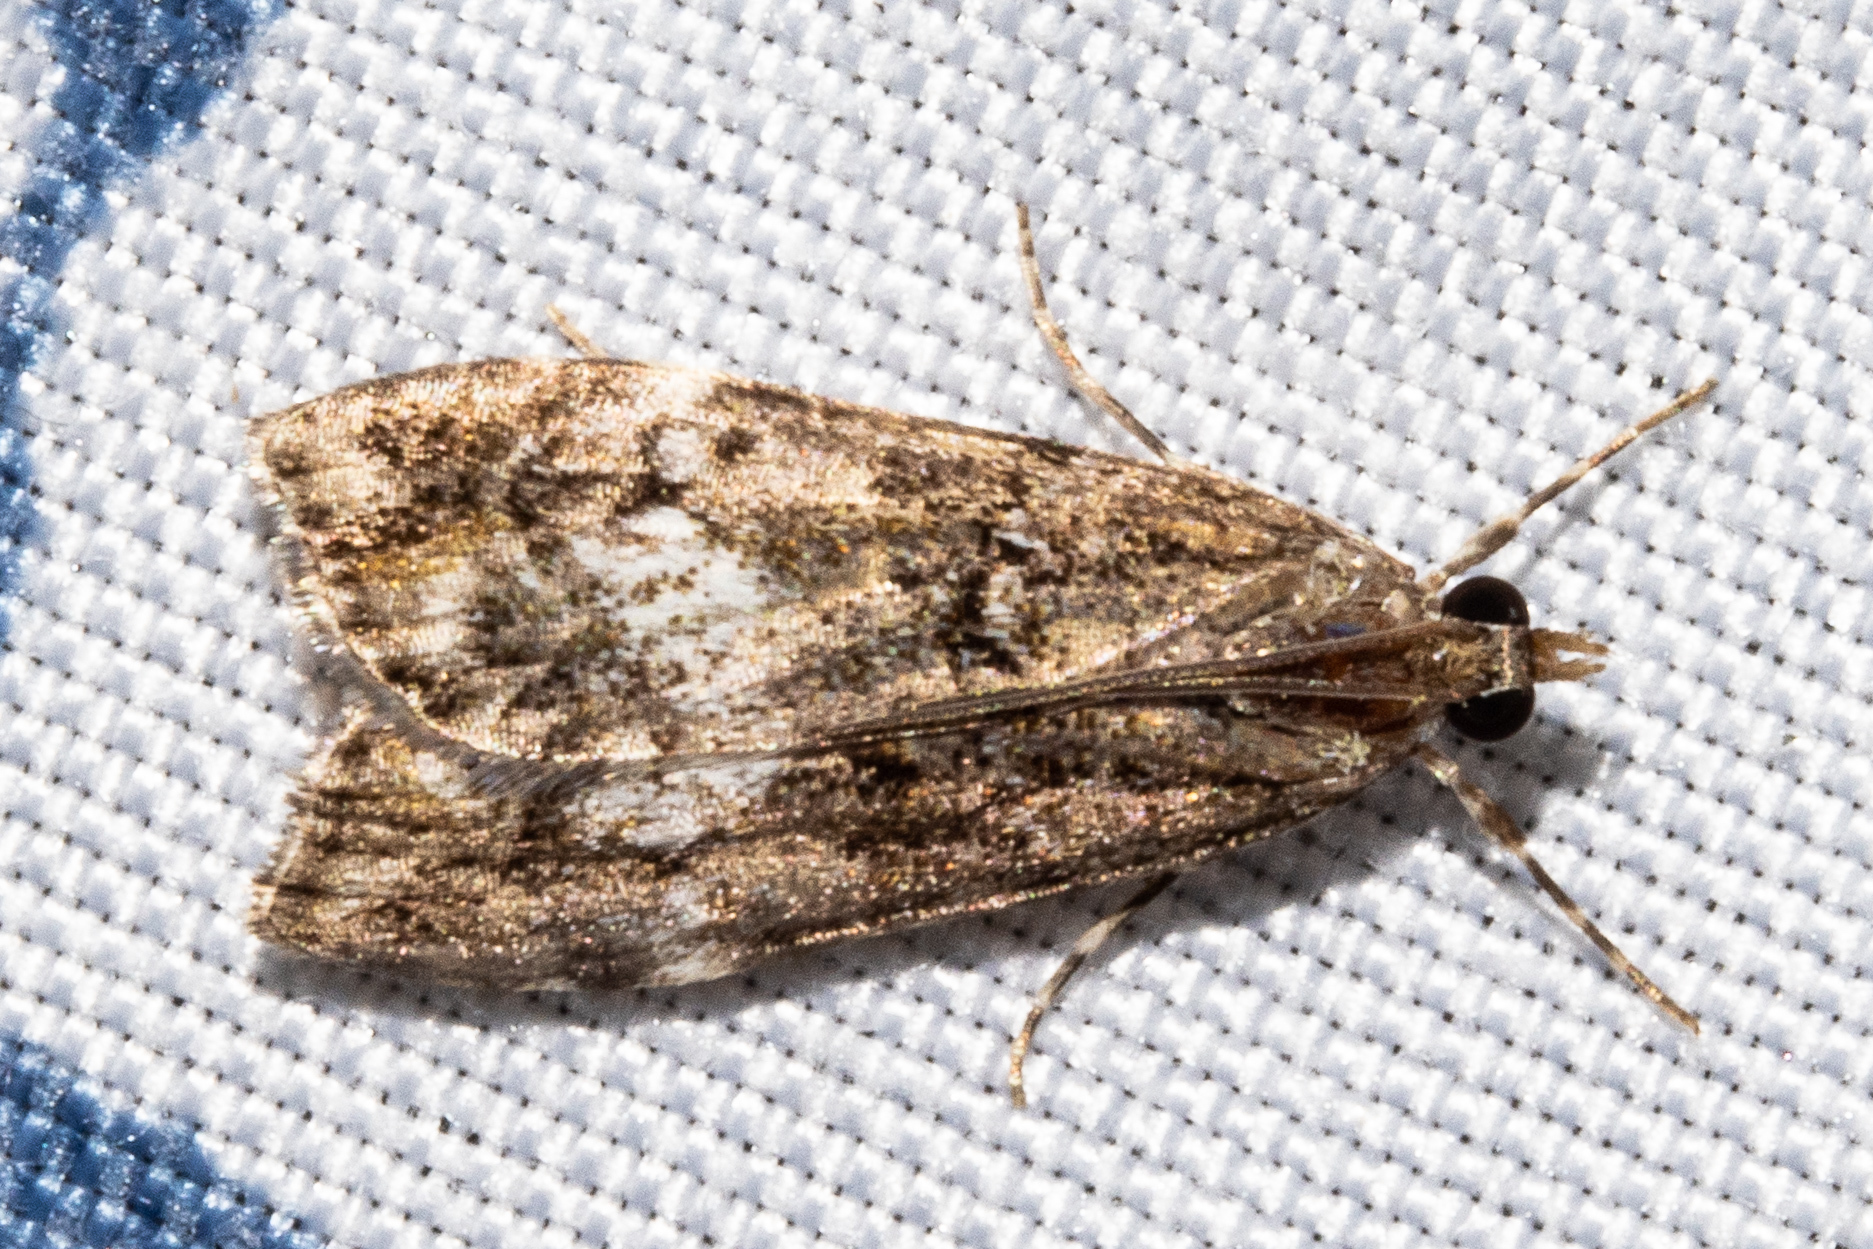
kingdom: Animalia
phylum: Arthropoda
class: Insecta
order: Lepidoptera
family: Crambidae
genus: Eudonia
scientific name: Eudonia dinodes
